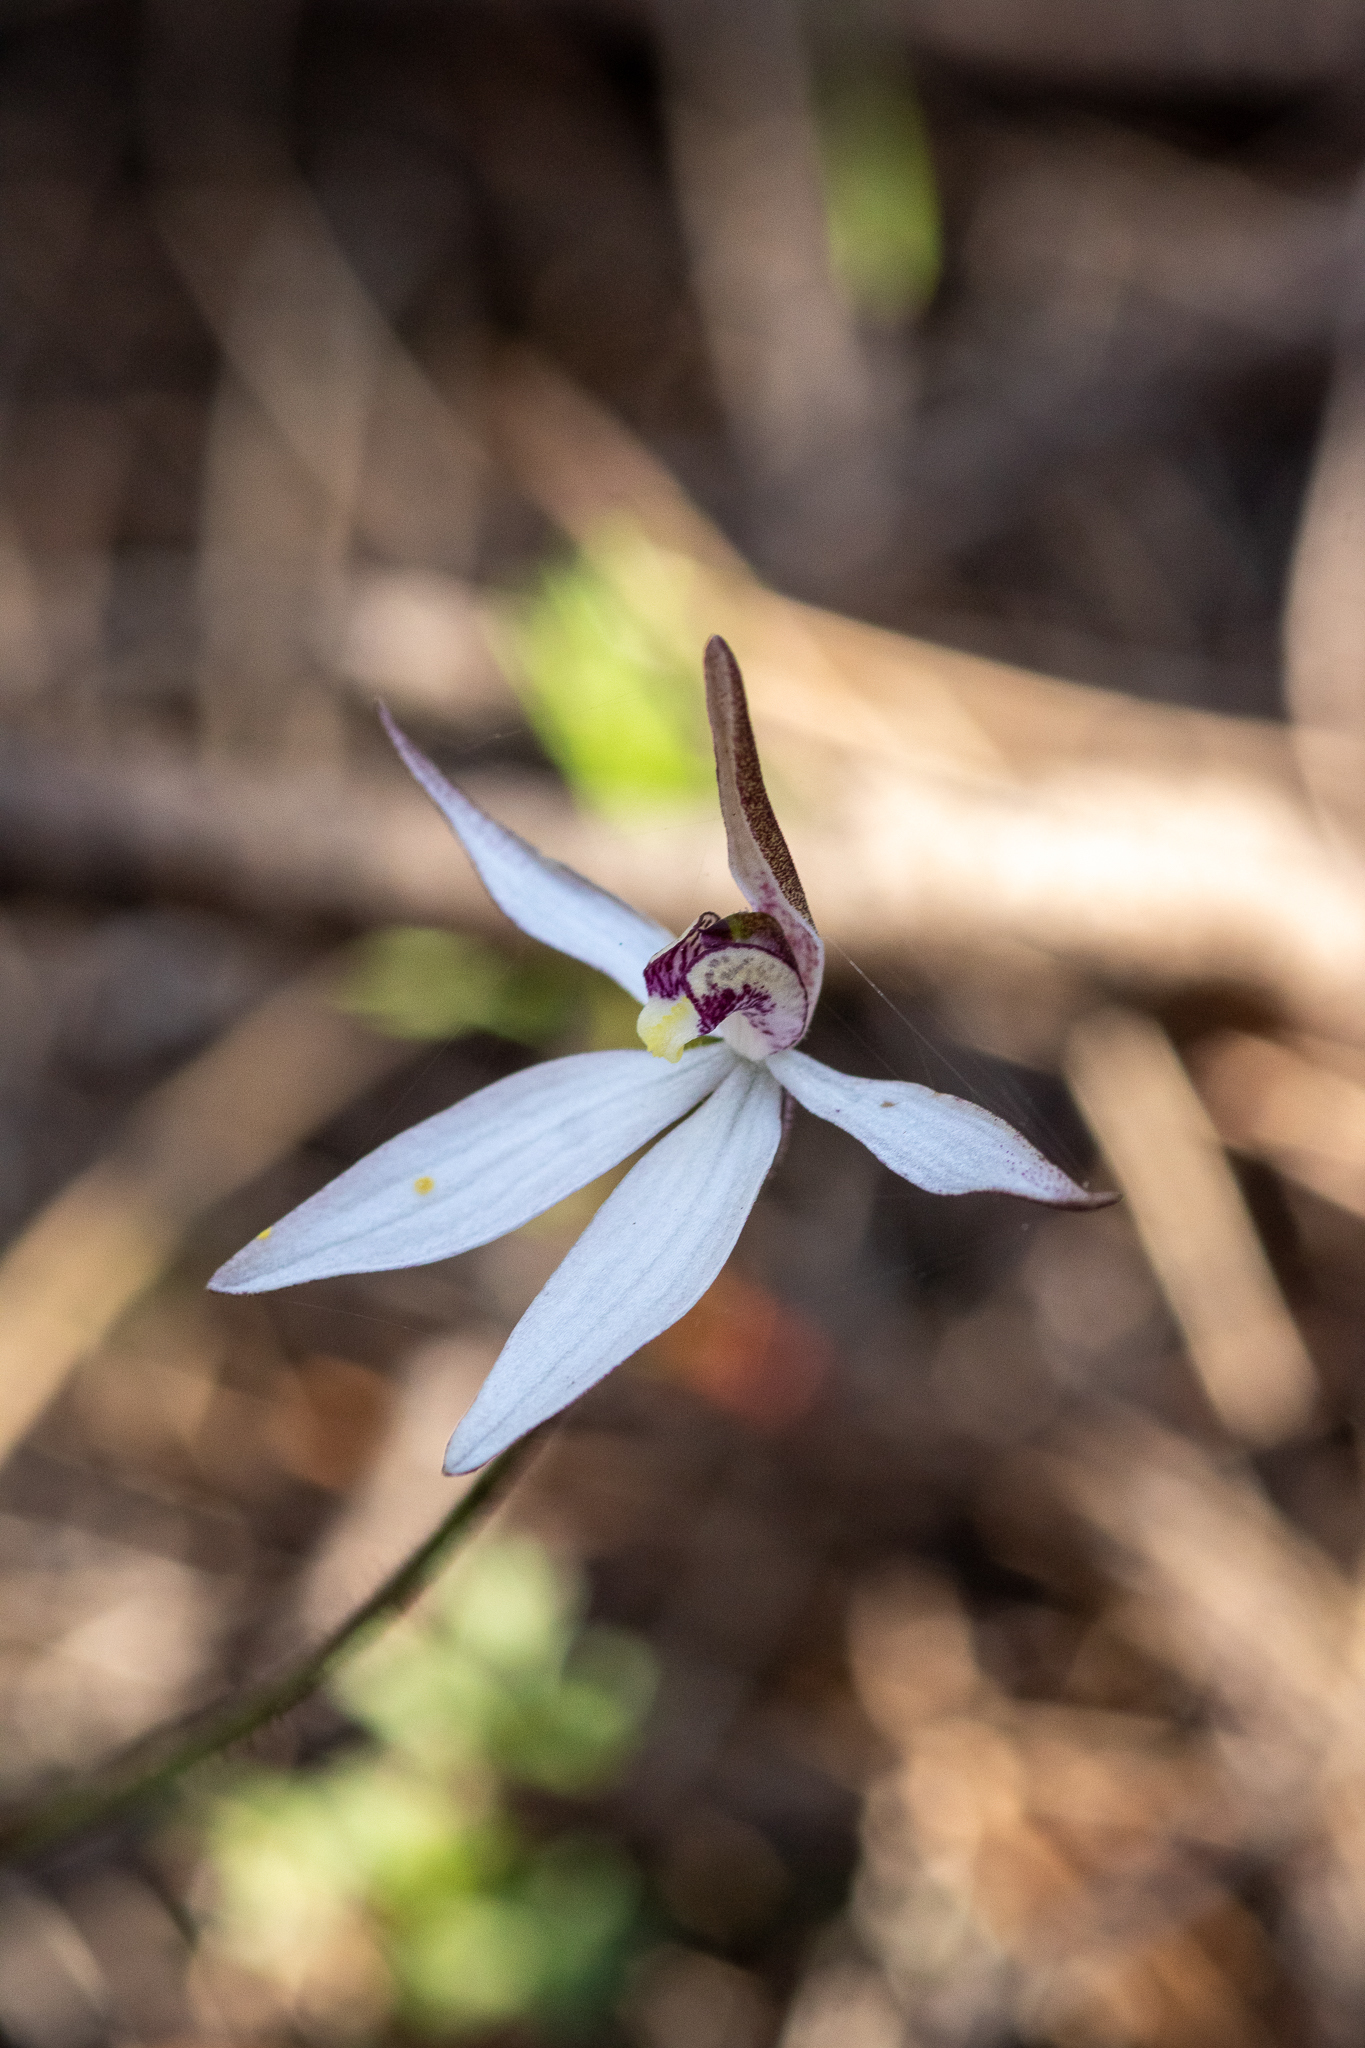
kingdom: Plantae
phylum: Tracheophyta
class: Liliopsida
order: Asparagales
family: Orchidaceae
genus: Caladenia
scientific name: Caladenia saccharata
